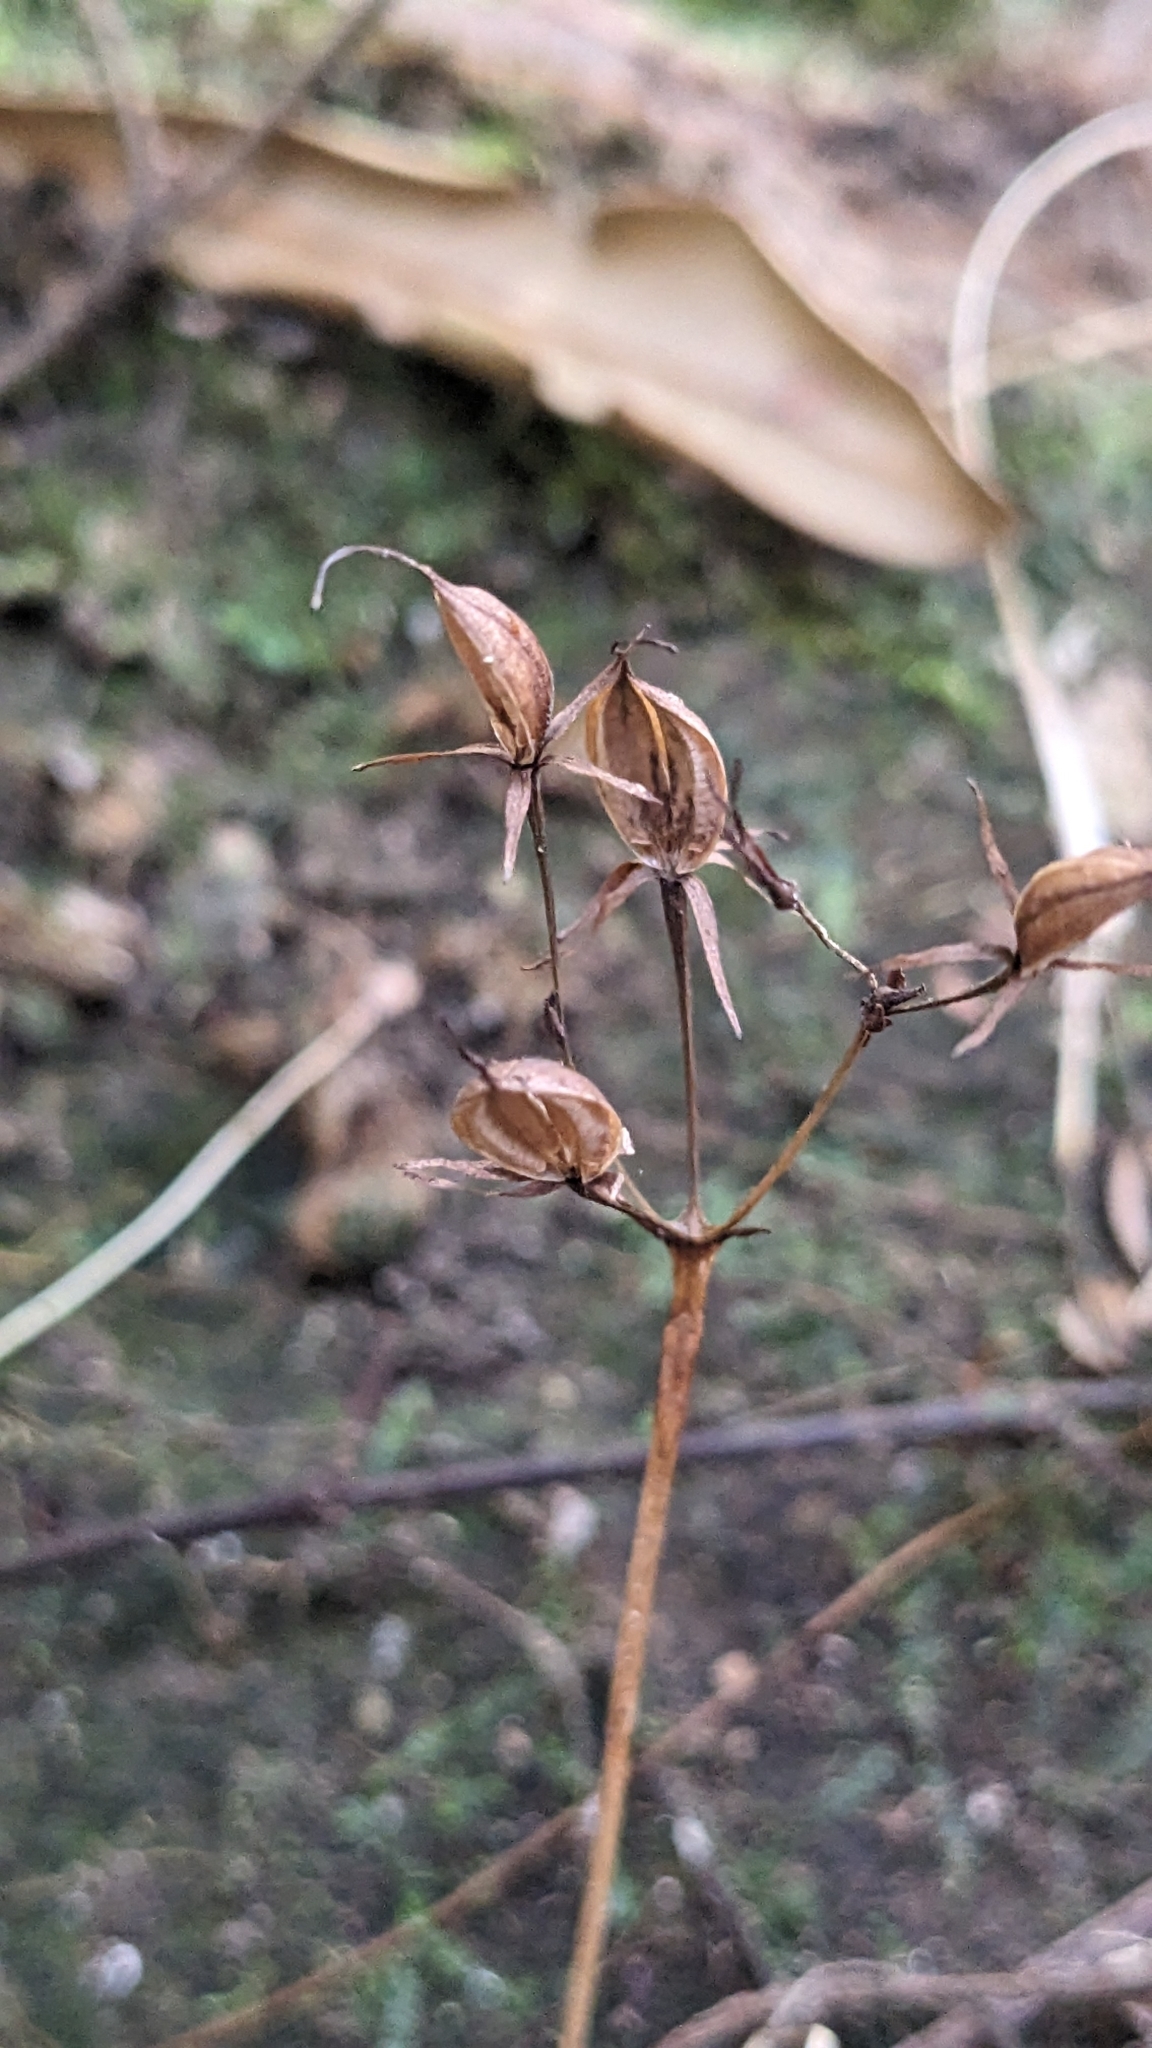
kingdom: Plantae
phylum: Tracheophyta
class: Magnoliopsida
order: Lamiales
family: Gesneriaceae
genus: Conandron
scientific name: Conandron ramondioides
